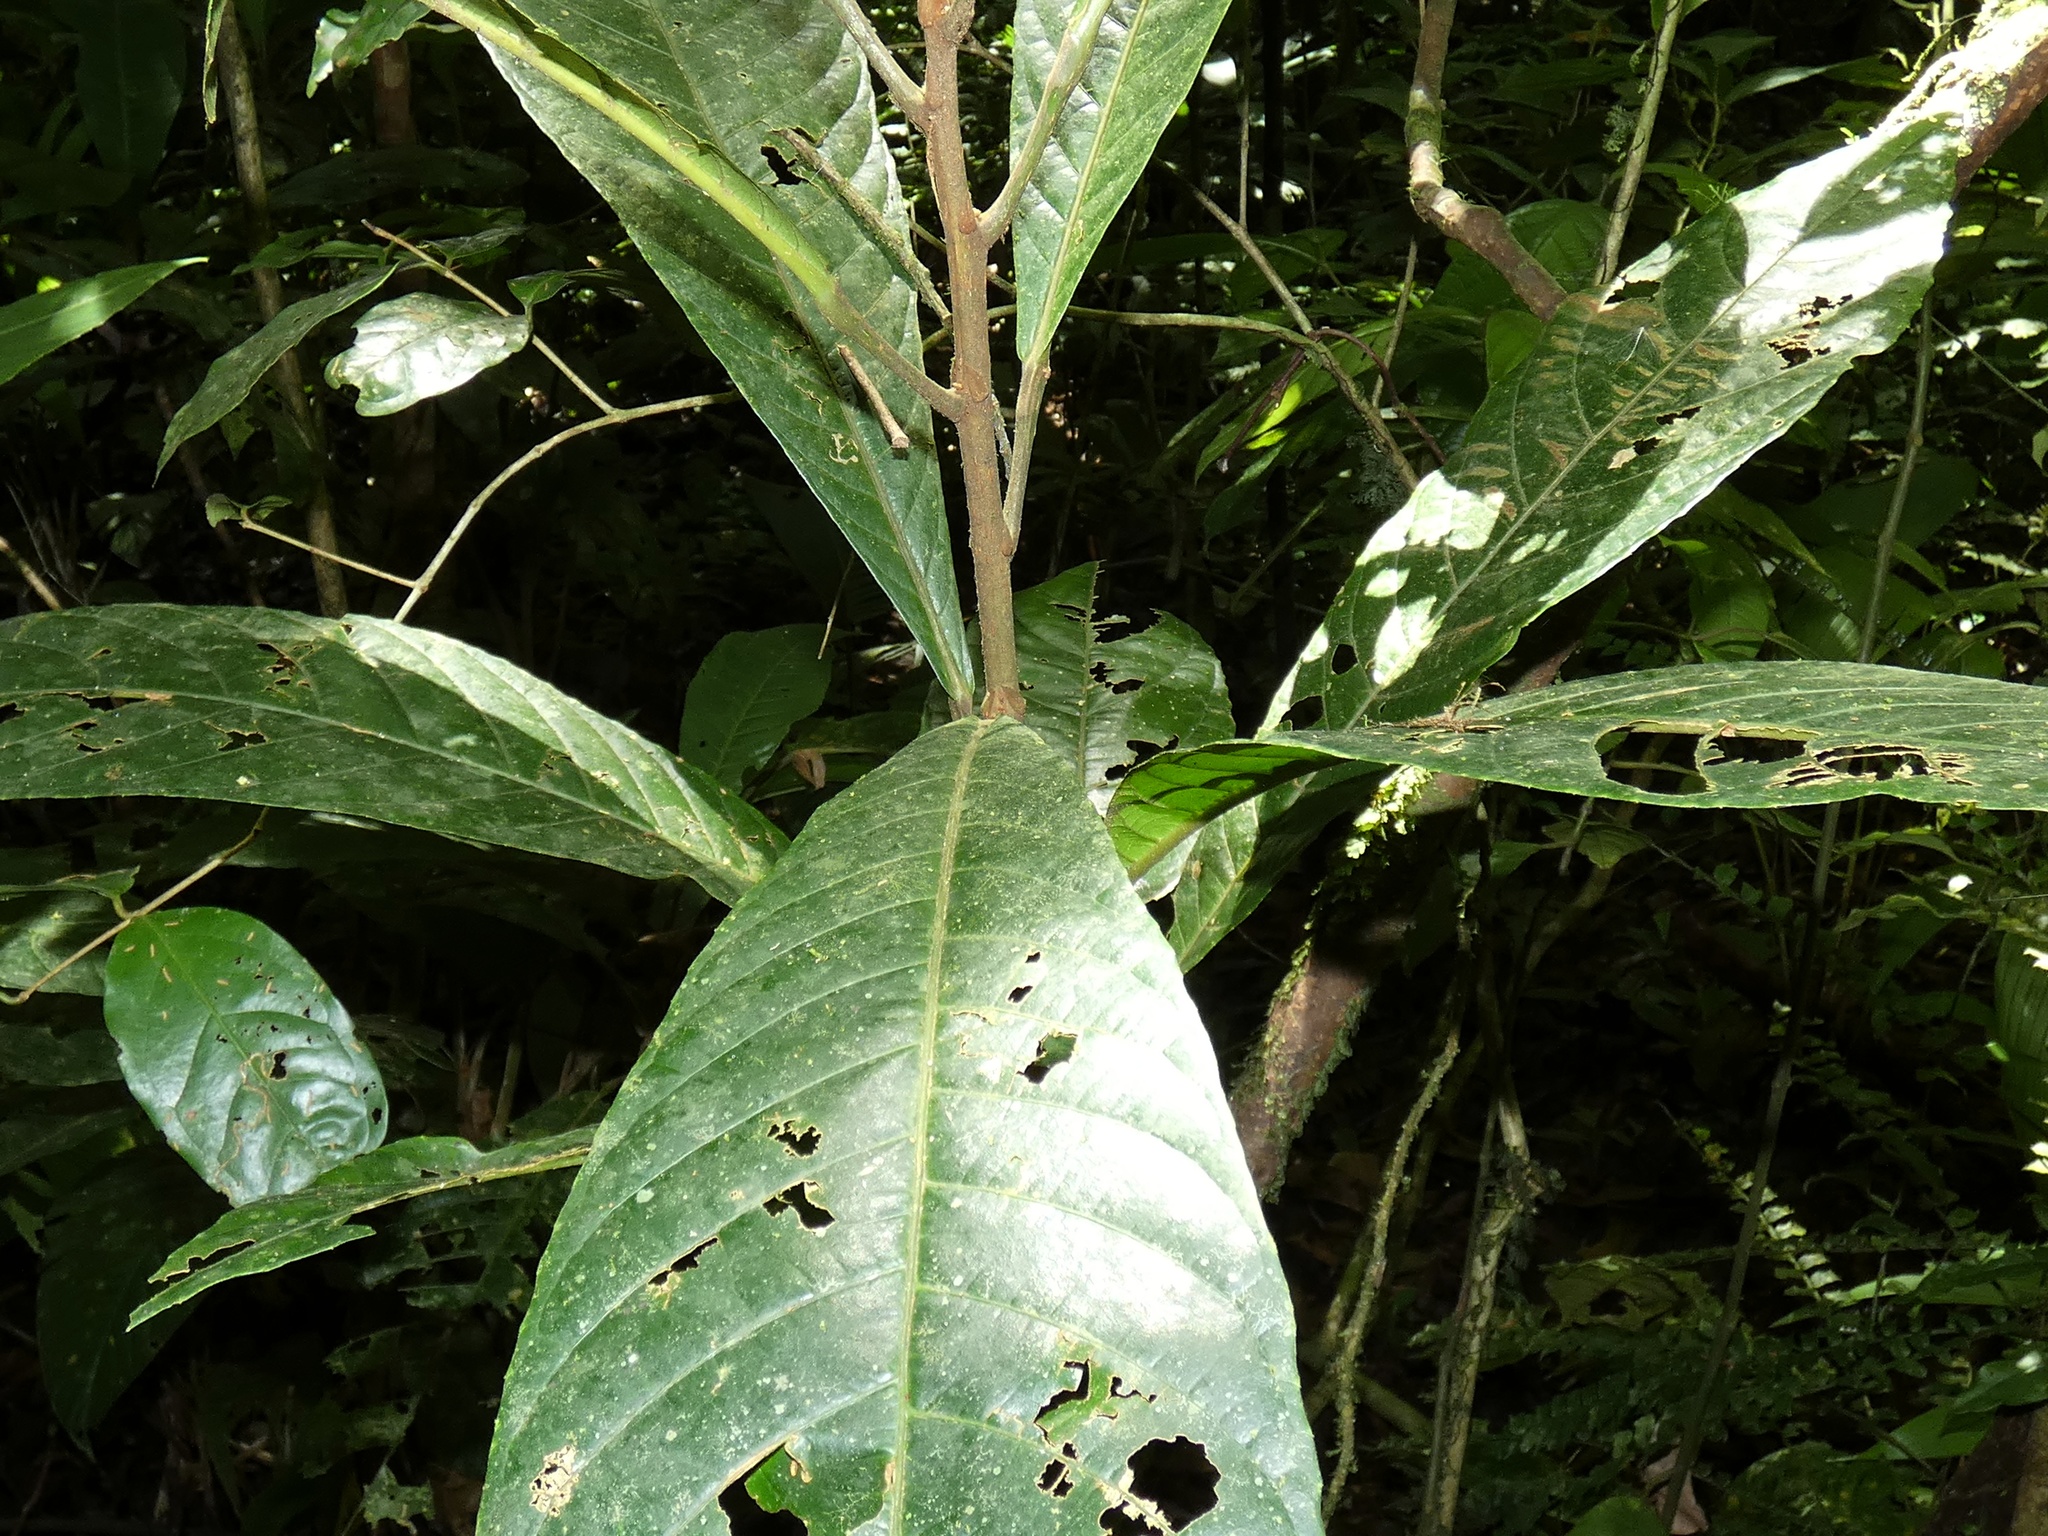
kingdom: Plantae
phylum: Tracheophyta
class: Magnoliopsida
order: Malpighiales
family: Achariaceae
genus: Carpotroche
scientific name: Carpotroche platyptera
